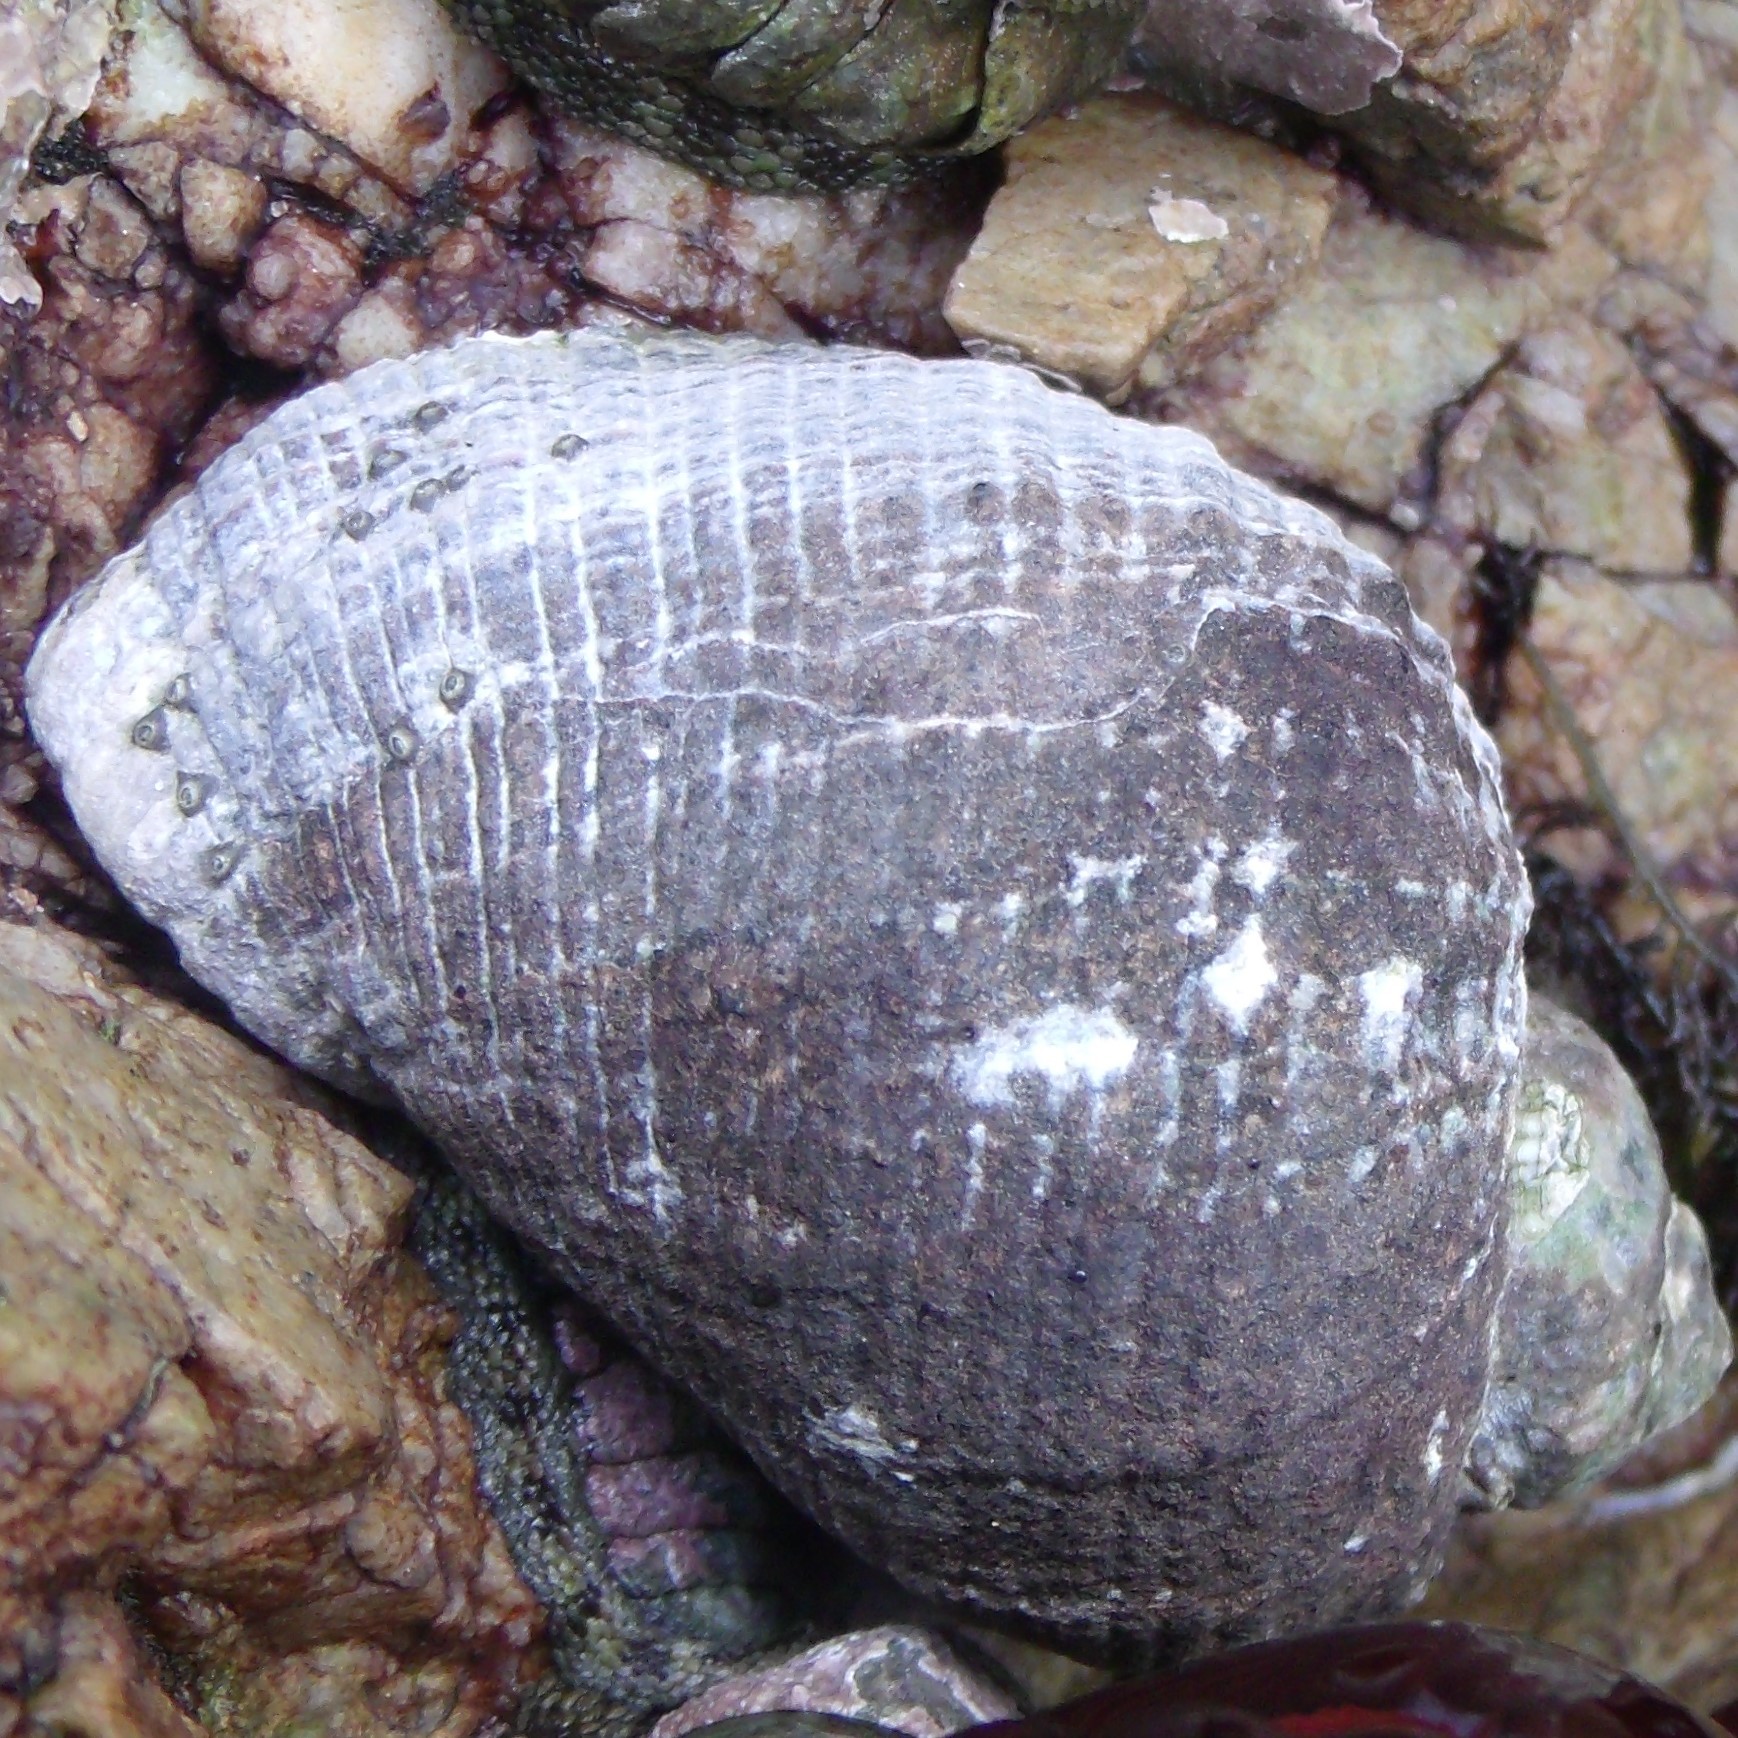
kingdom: Animalia
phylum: Mollusca
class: Gastropoda
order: Neogastropoda
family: Muricidae
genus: Haustrum
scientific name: Haustrum haustorium
